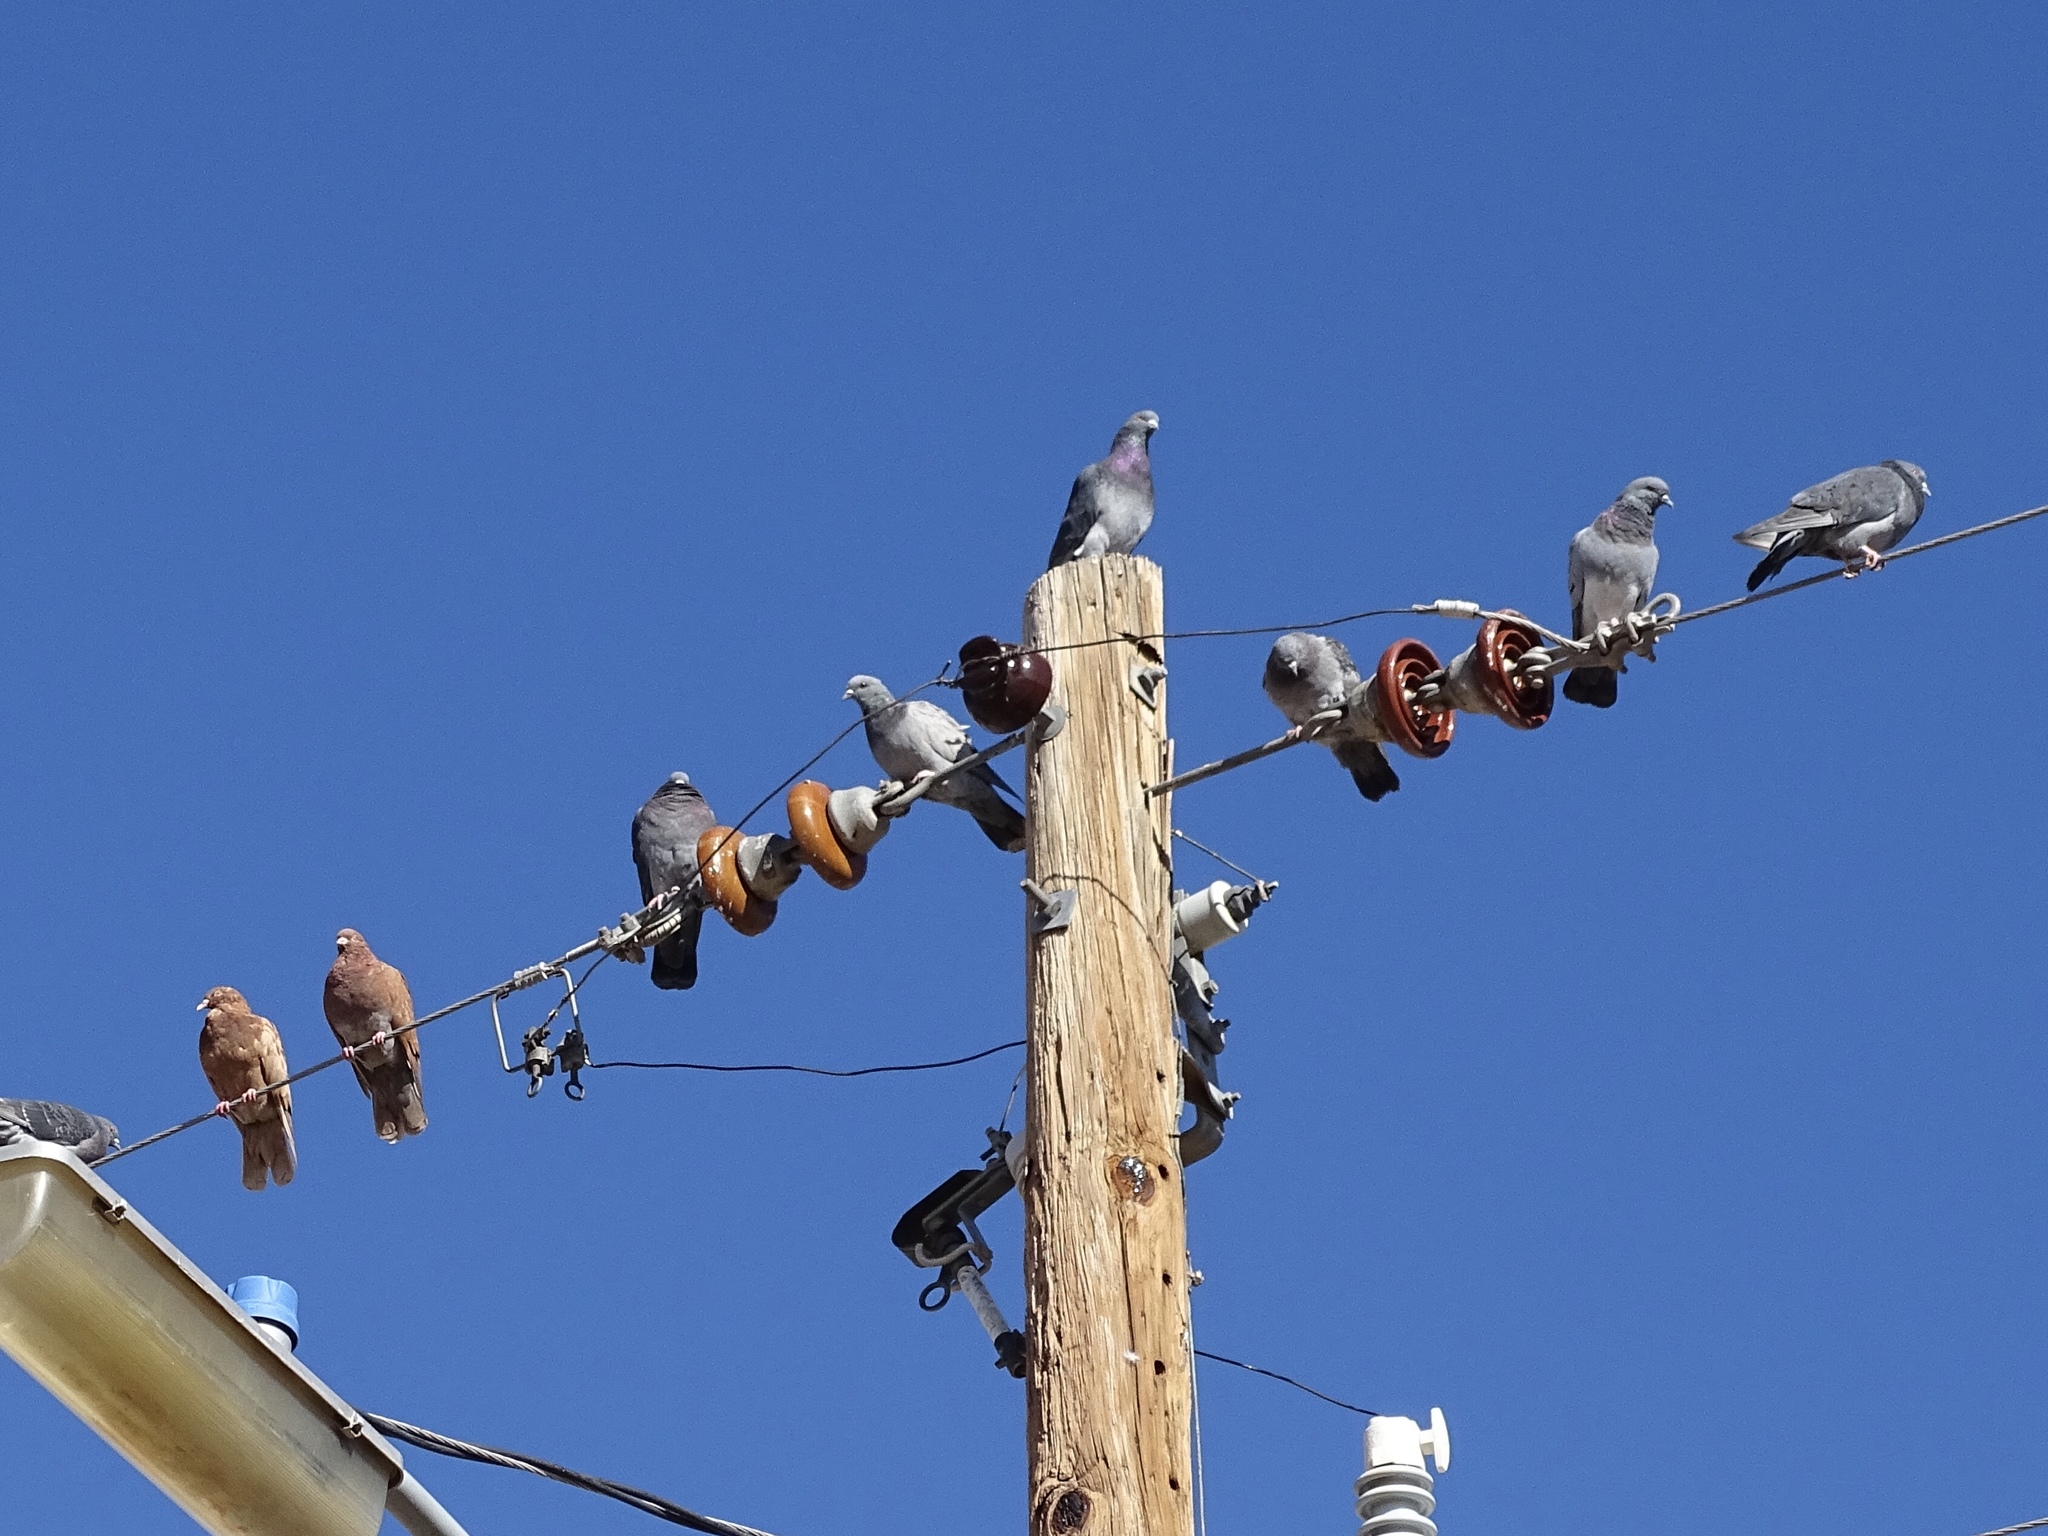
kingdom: Animalia
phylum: Chordata
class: Aves
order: Columbiformes
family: Columbidae
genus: Columba
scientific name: Columba livia
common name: Rock pigeon
